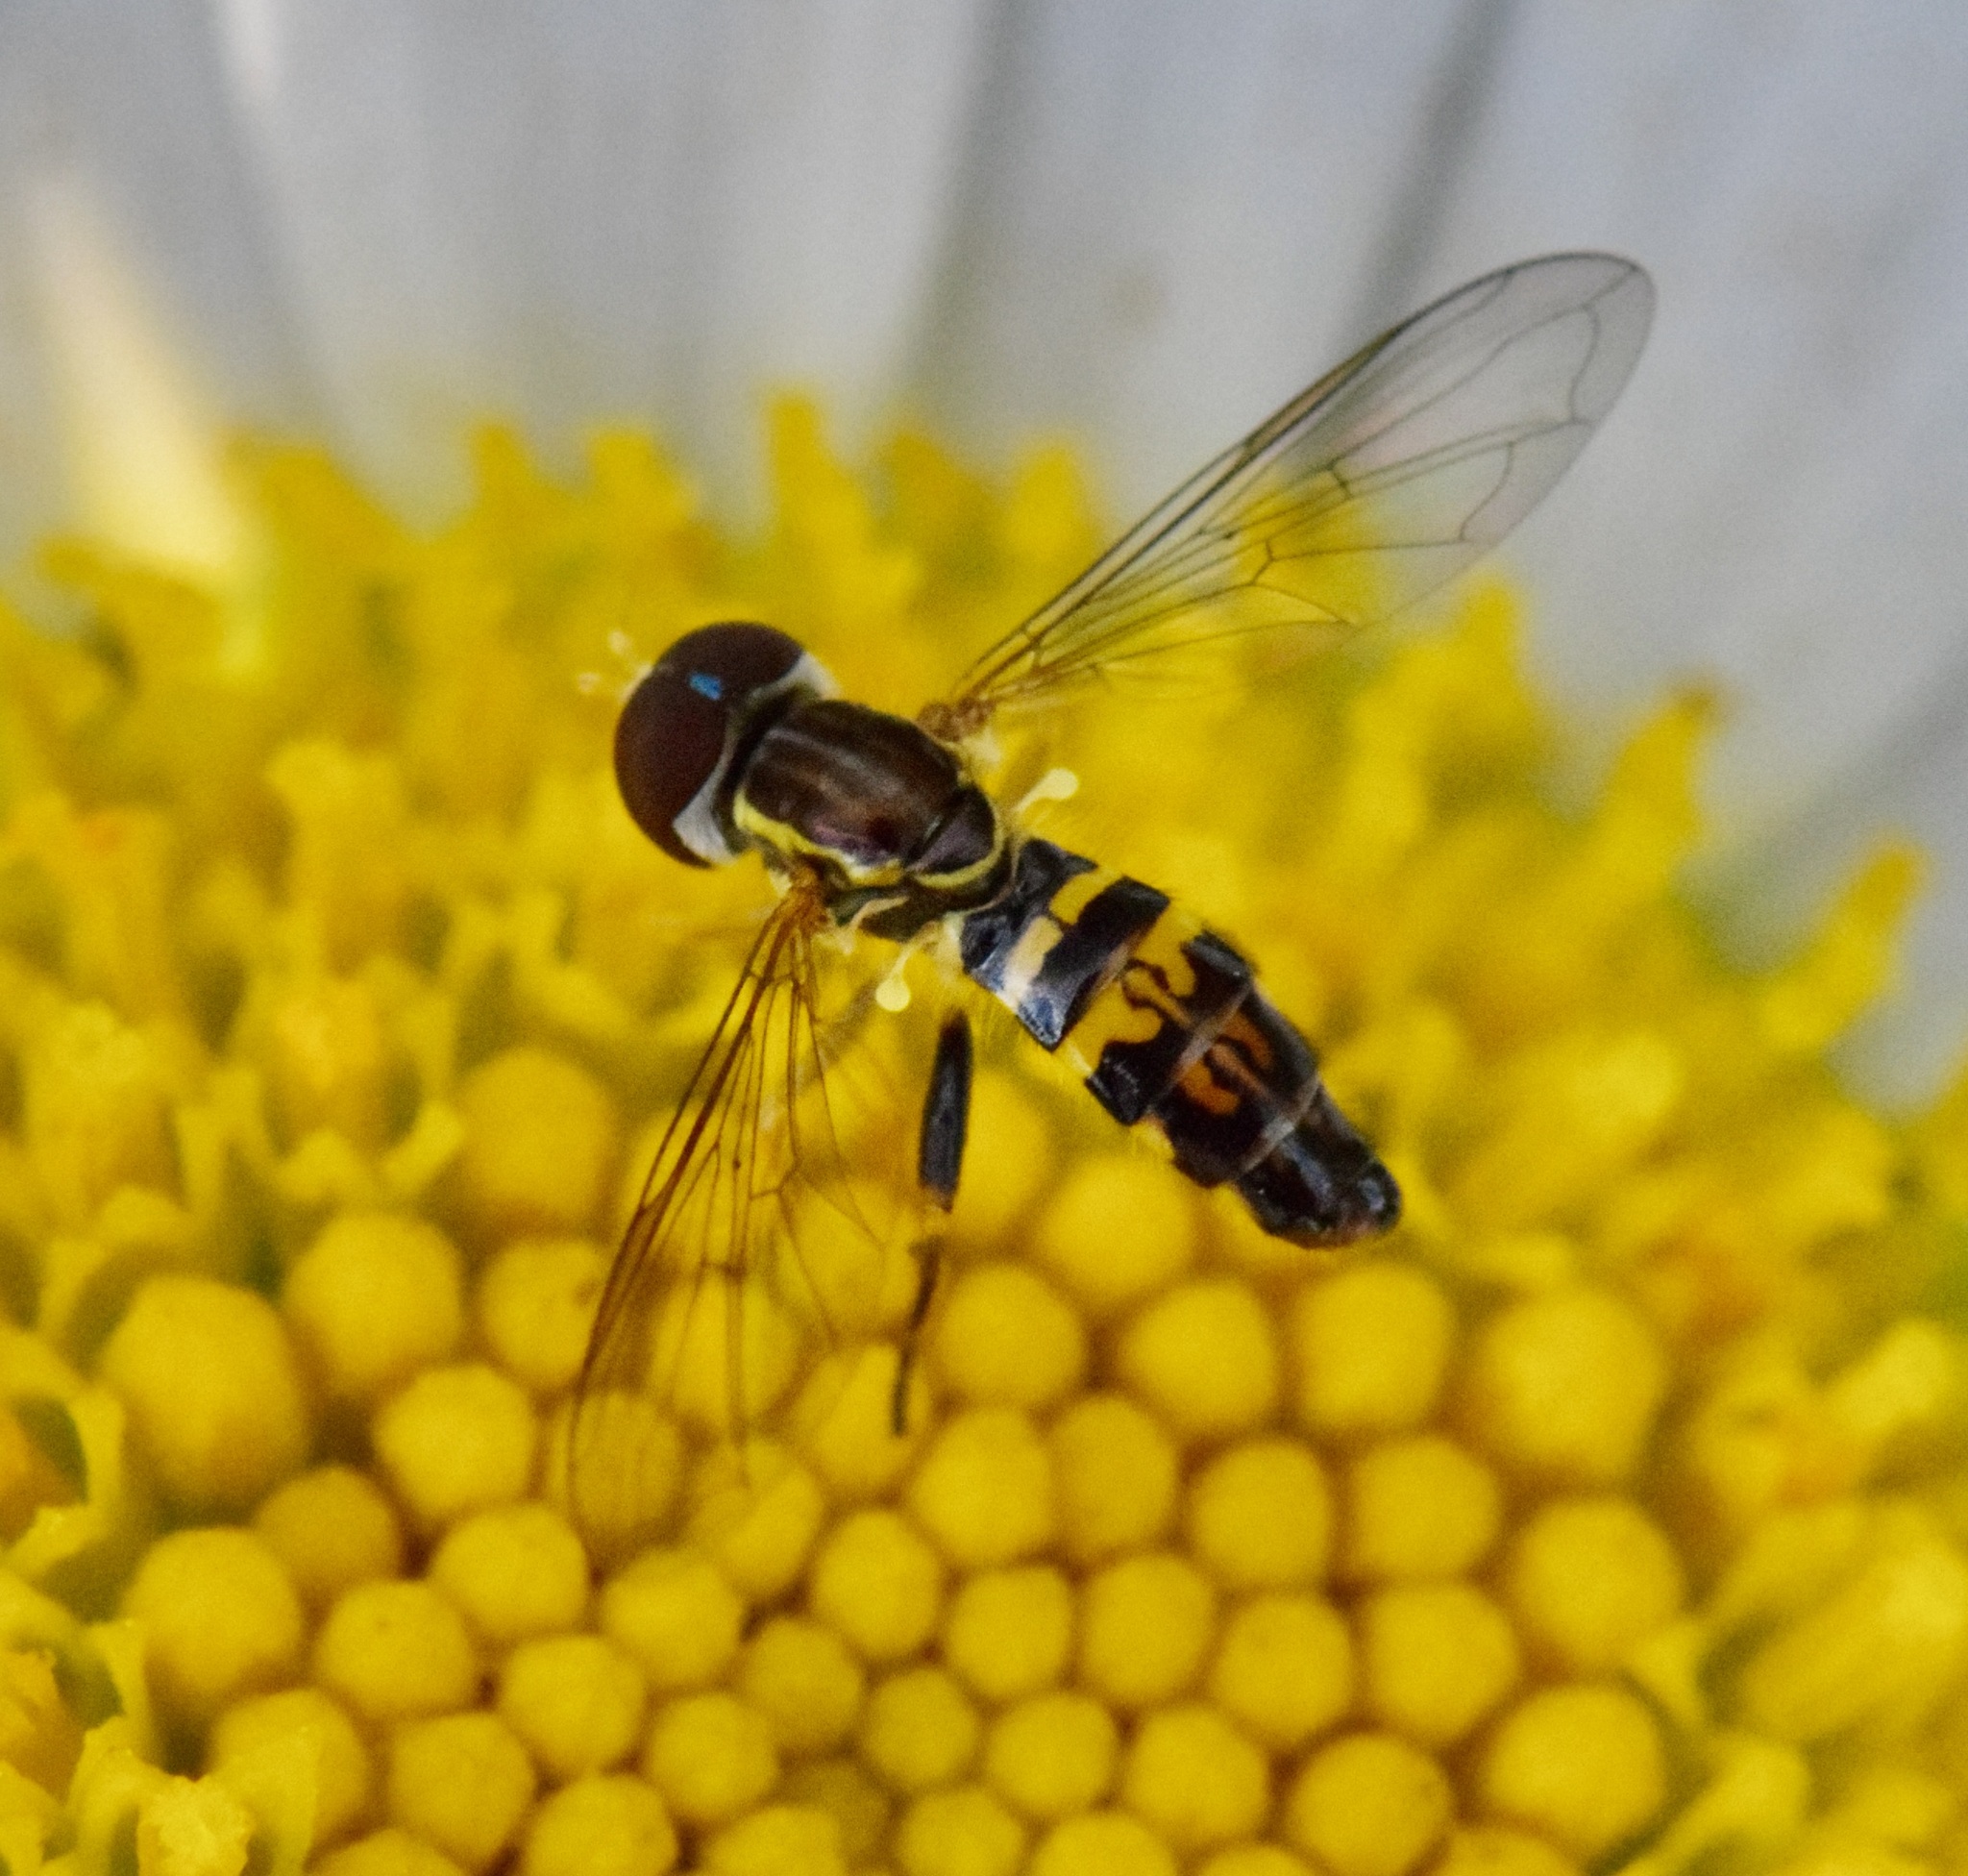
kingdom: Animalia
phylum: Arthropoda
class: Insecta
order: Diptera
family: Syrphidae
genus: Toxomerus
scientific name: Toxomerus geminatus
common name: Eastern calligrapher
